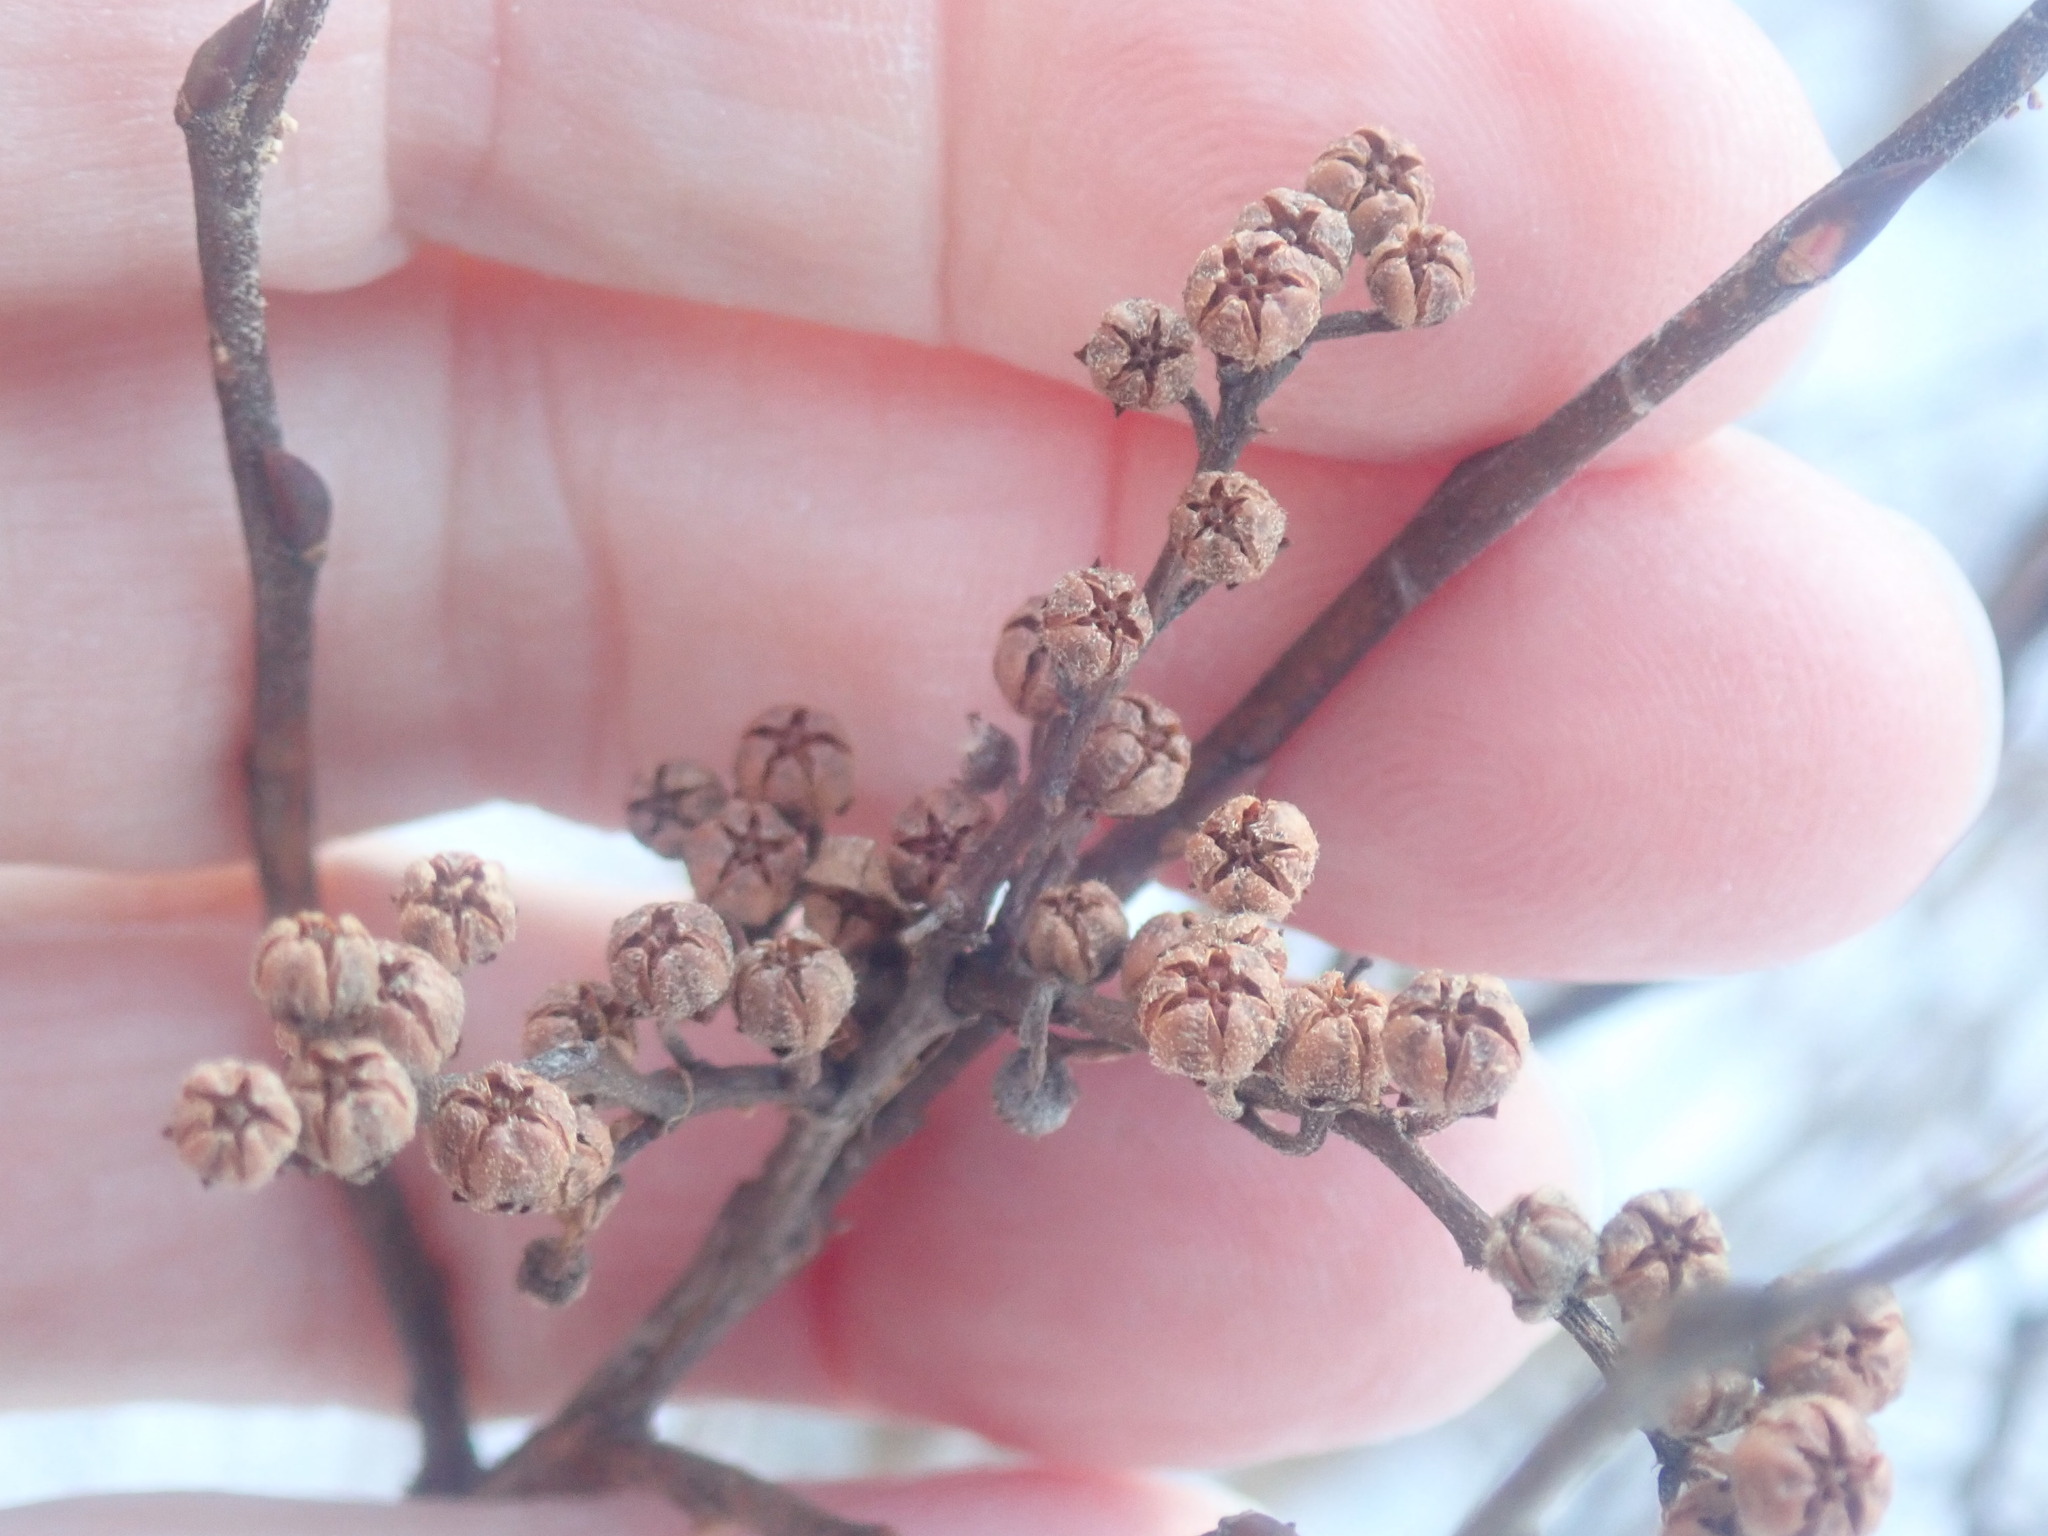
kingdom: Plantae
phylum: Tracheophyta
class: Magnoliopsida
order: Ericales
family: Ericaceae
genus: Lyonia
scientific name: Lyonia ligustrina
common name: Maleberry
